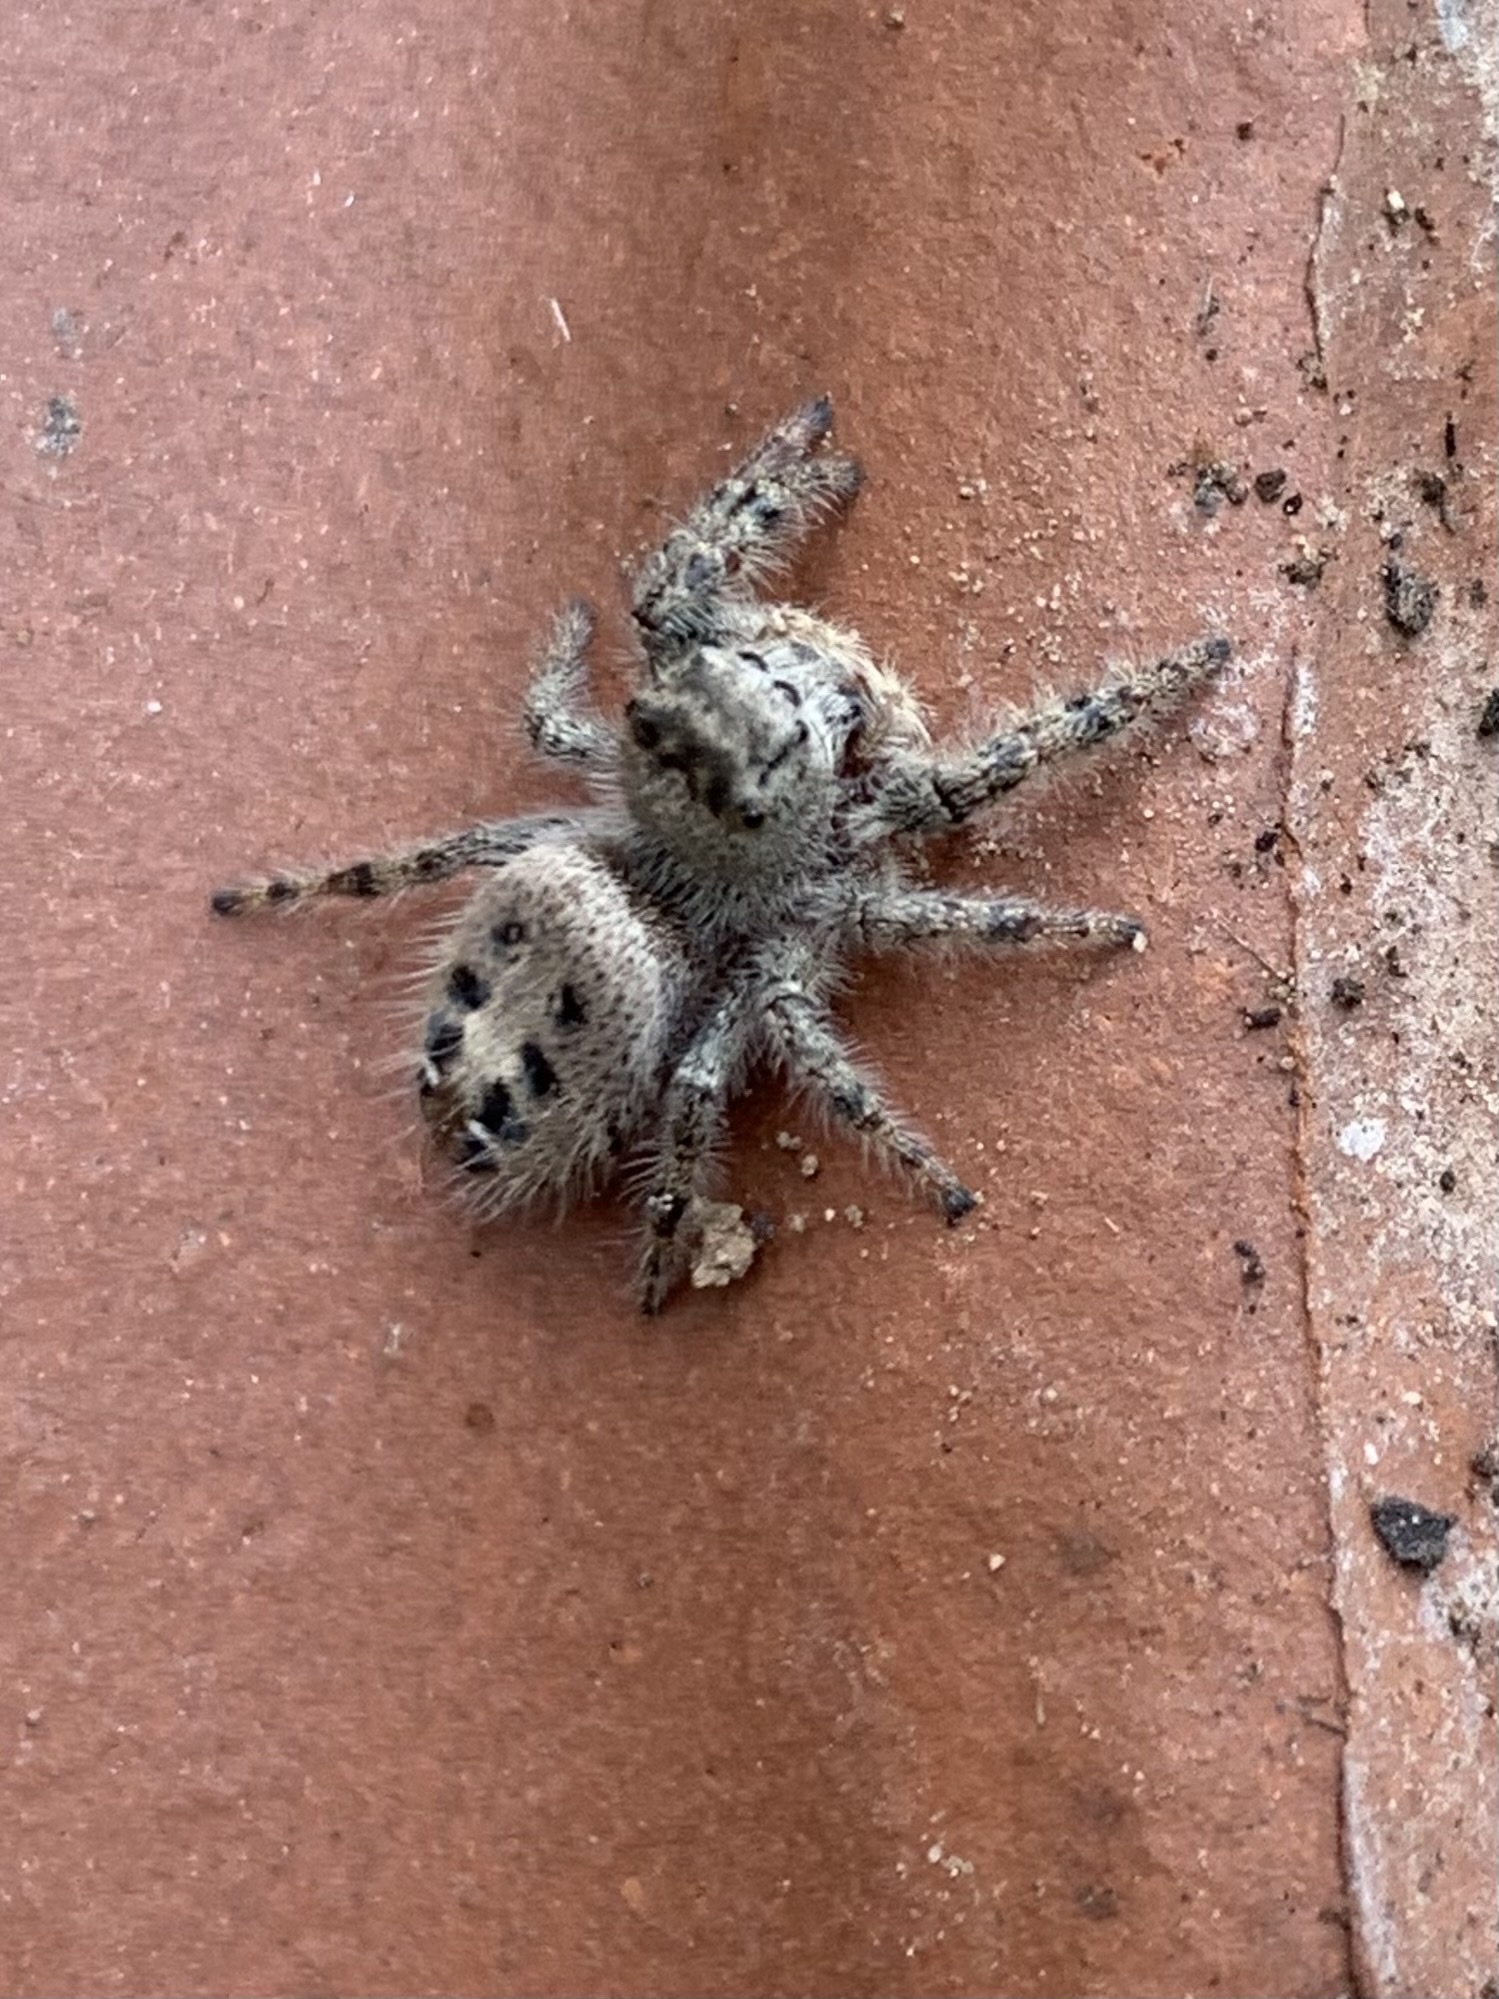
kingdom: Animalia
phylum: Arthropoda
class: Arachnida
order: Araneae
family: Salticidae
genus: Phidippus
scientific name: Phidippus adumbratus
